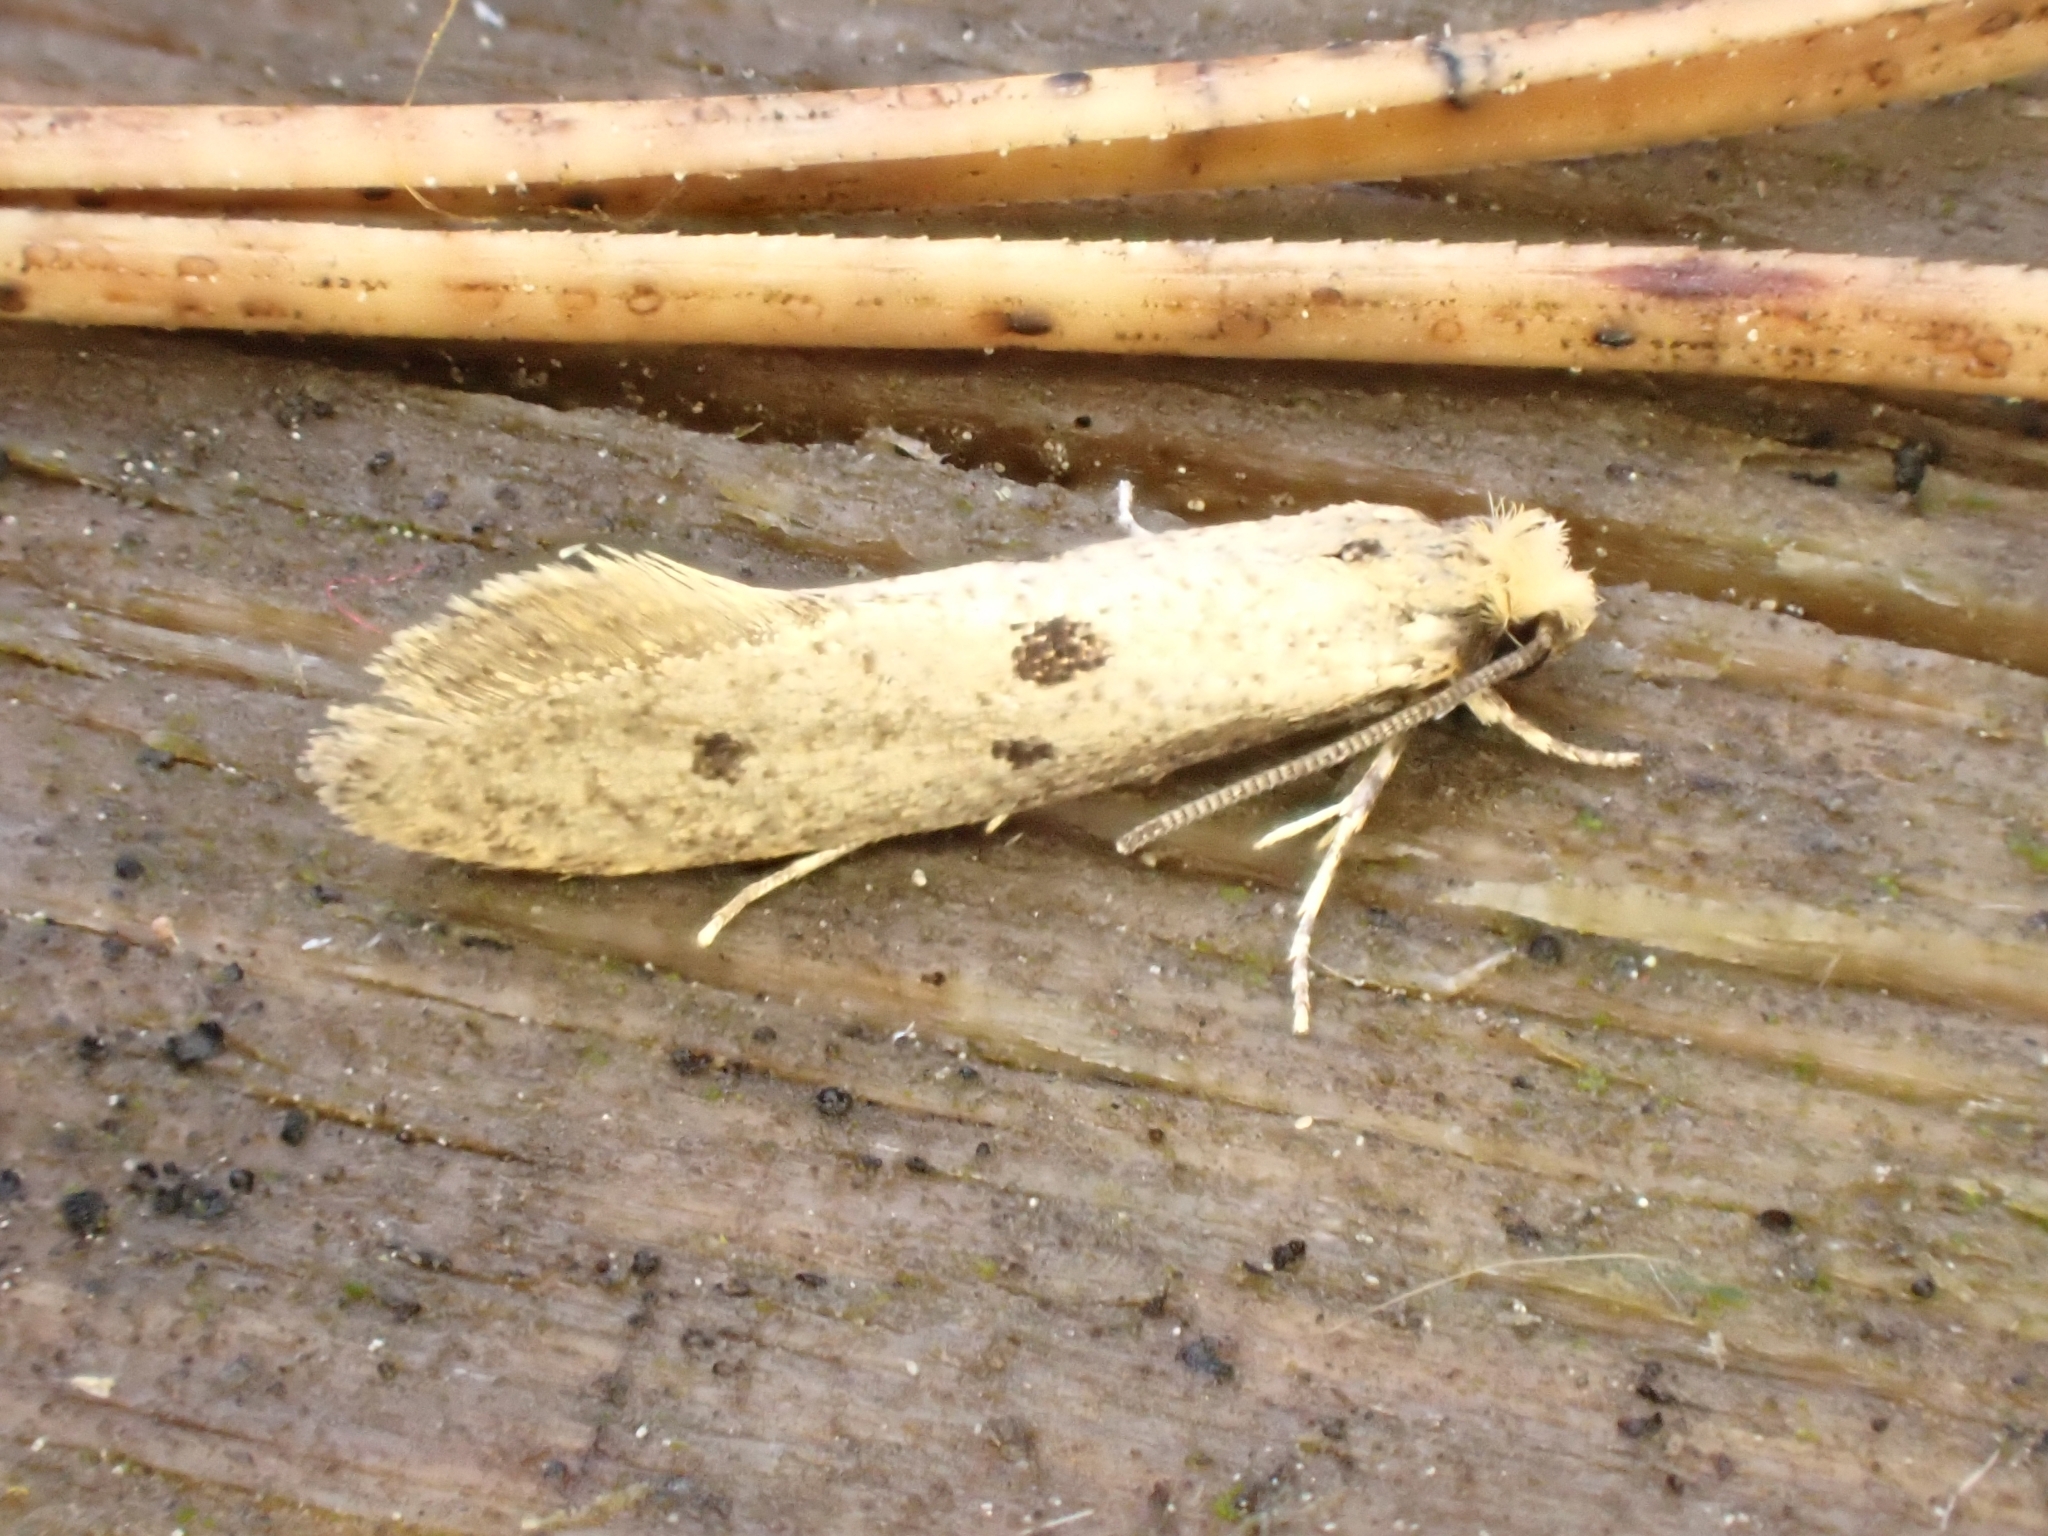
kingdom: Animalia
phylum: Arthropoda
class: Insecta
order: Lepidoptera
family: Tineidae
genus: Tinea
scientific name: Tinea trinotella
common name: Bird's-nest moth
